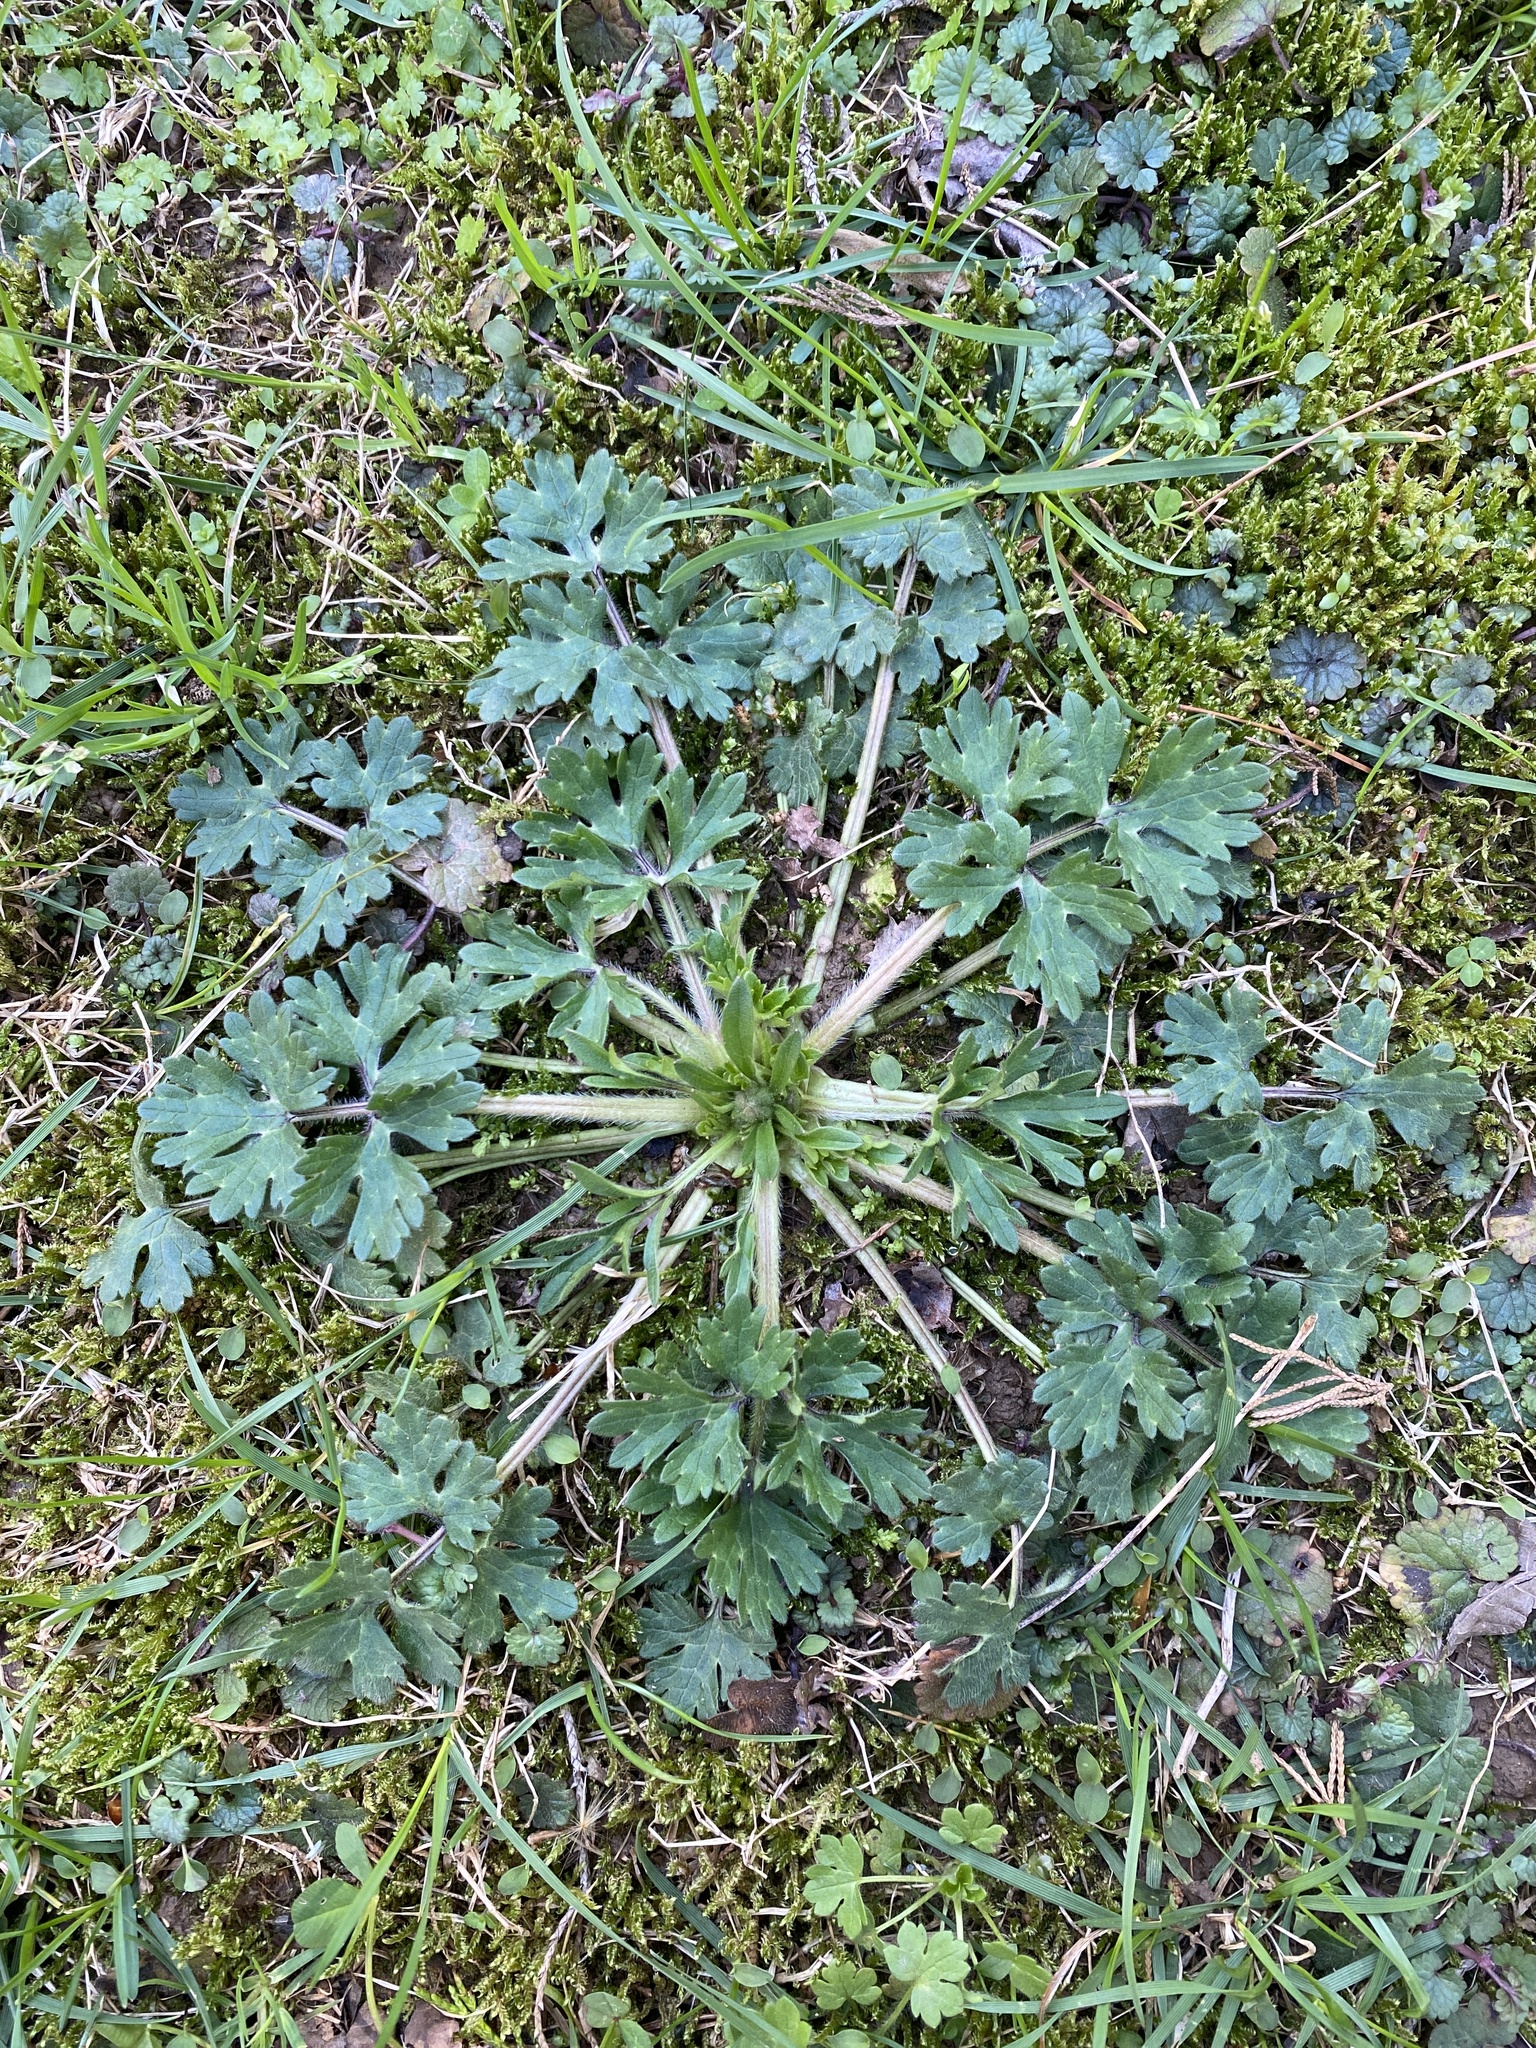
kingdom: Plantae
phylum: Tracheophyta
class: Magnoliopsida
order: Ranunculales
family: Ranunculaceae
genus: Ranunculus
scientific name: Ranunculus bulbosus
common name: Bulbous buttercup
